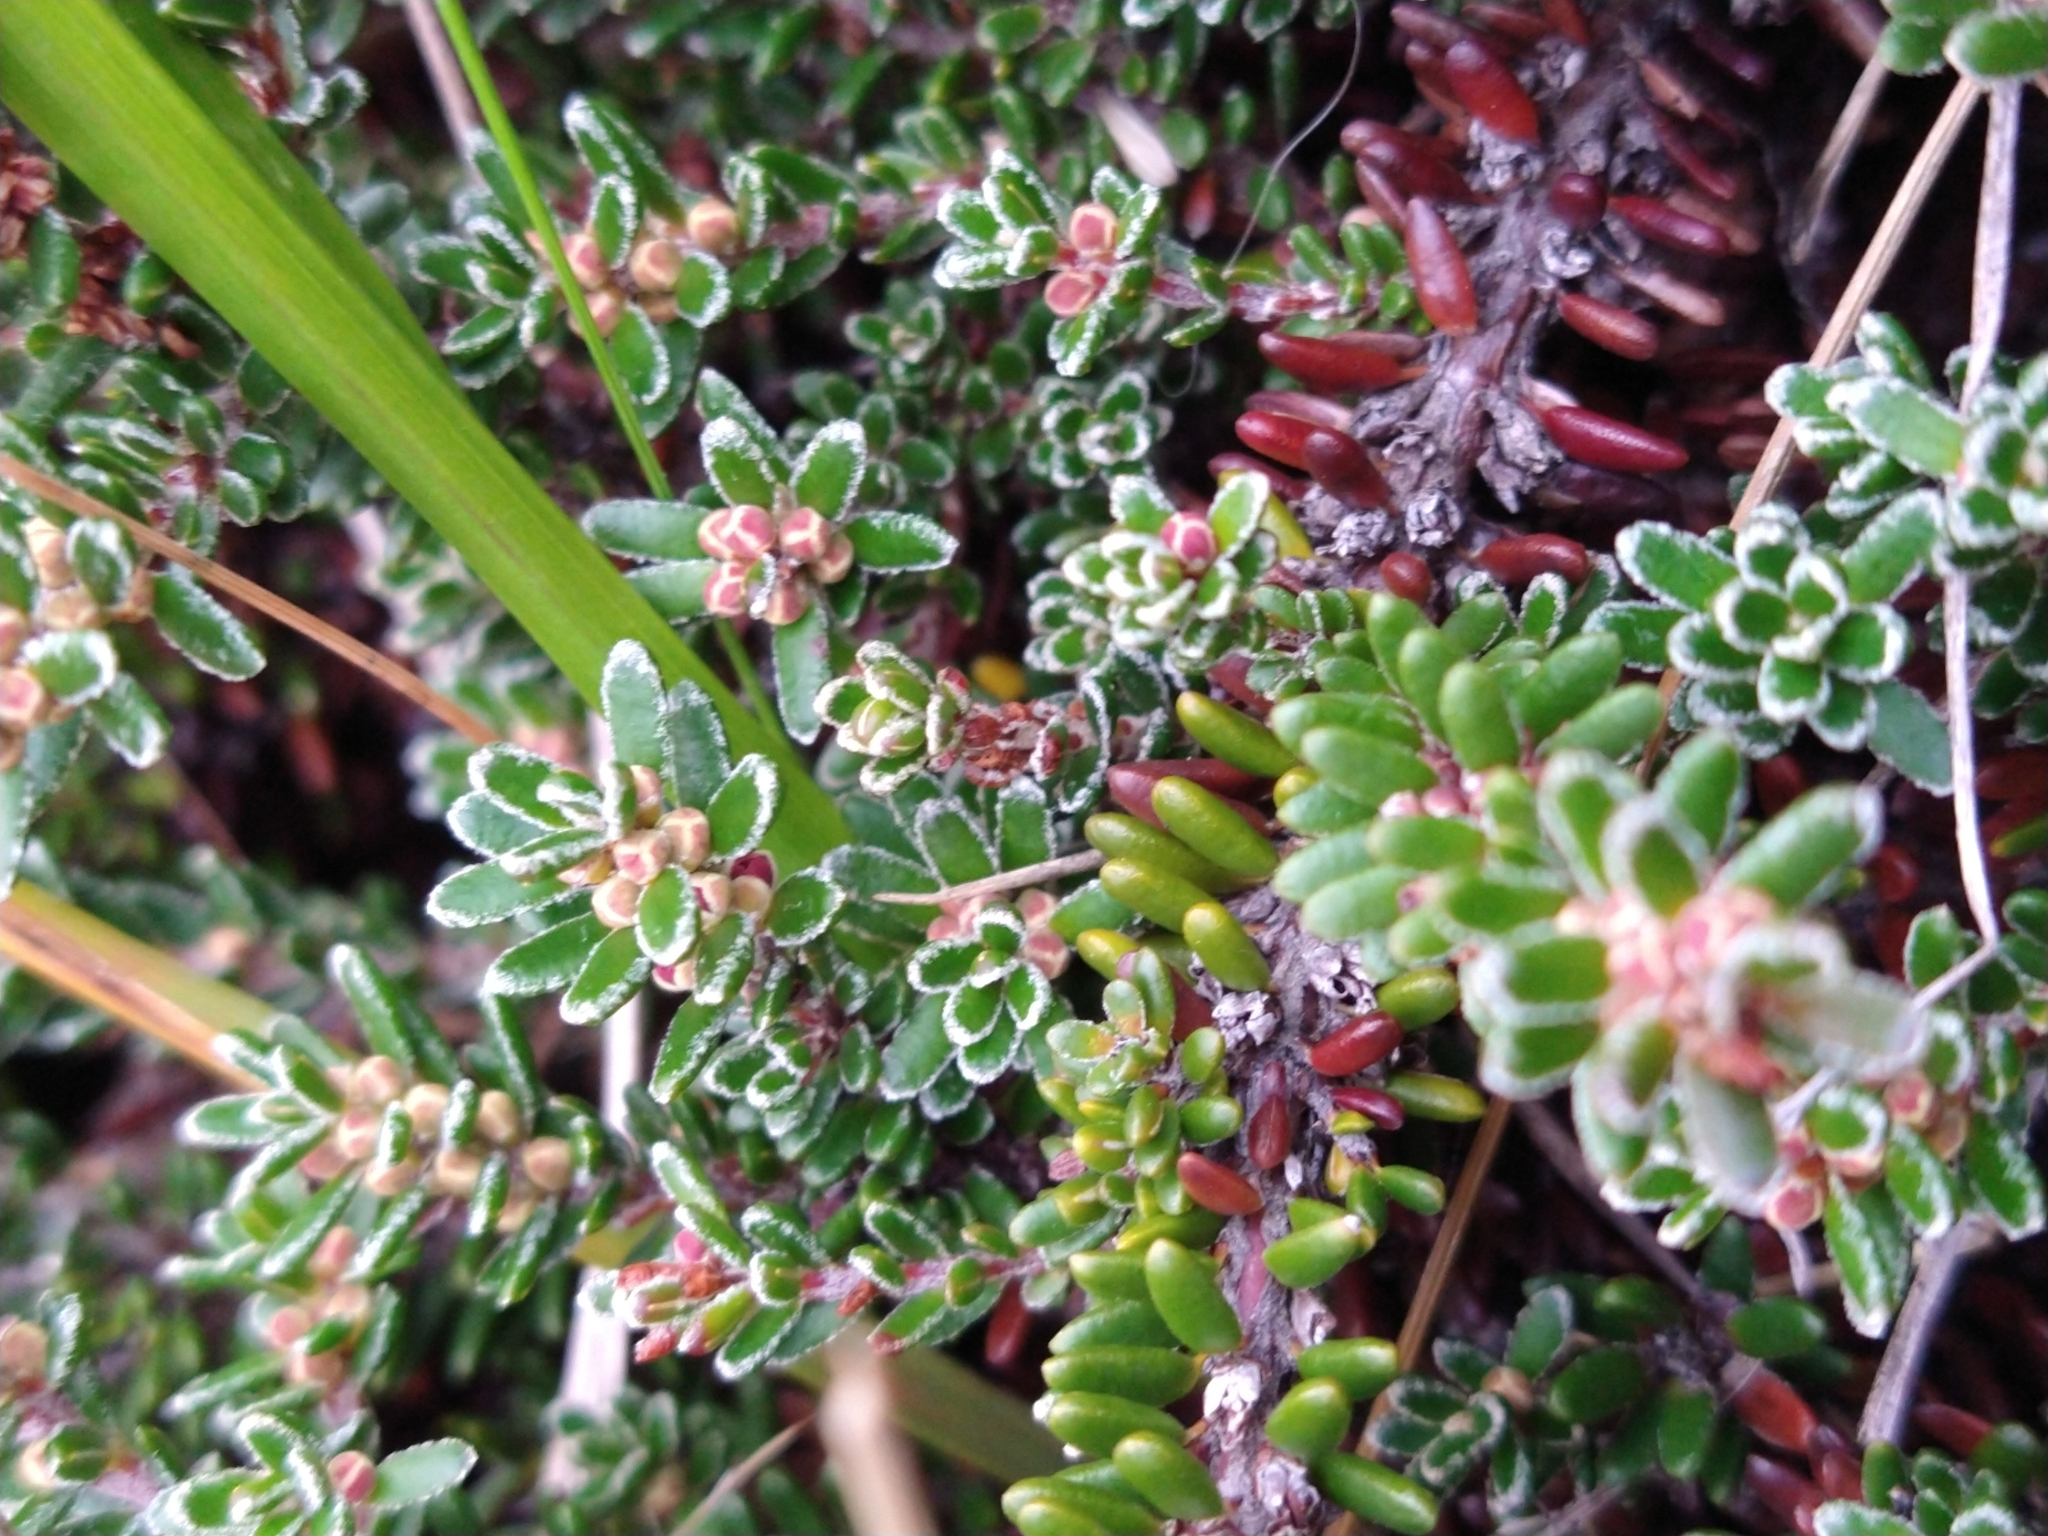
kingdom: Plantae
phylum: Tracheophyta
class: Magnoliopsida
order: Ericales
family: Ericaceae
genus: Empetrum
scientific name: Empetrum rubrum
